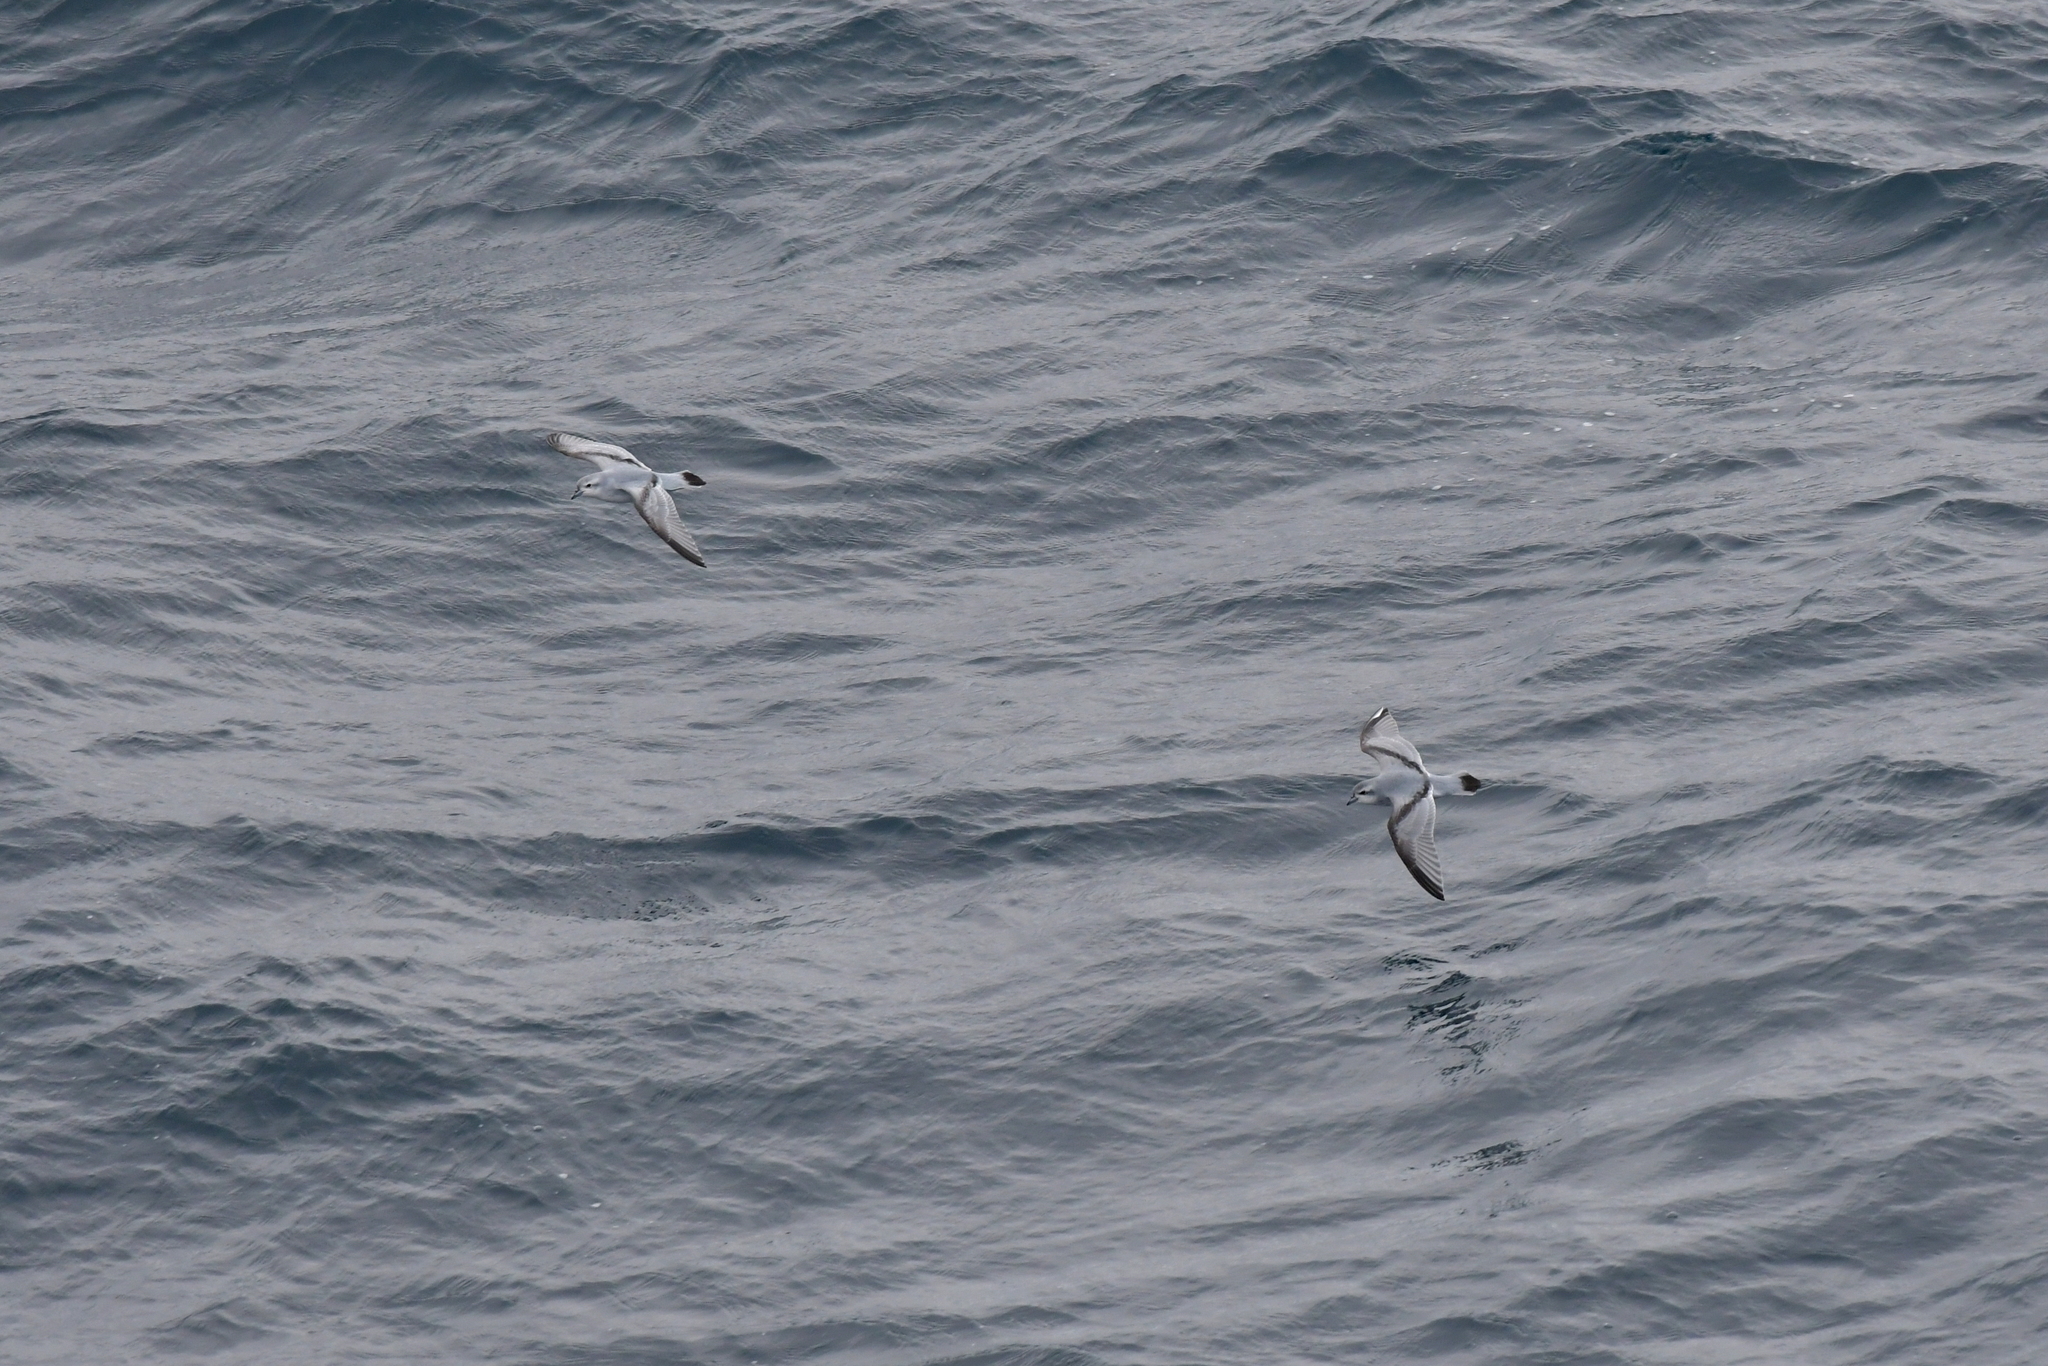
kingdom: Animalia
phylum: Chordata
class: Aves
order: Procellariiformes
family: Procellariidae
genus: Pachyptila
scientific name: Pachyptila crassirostris
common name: Fulmar prion
